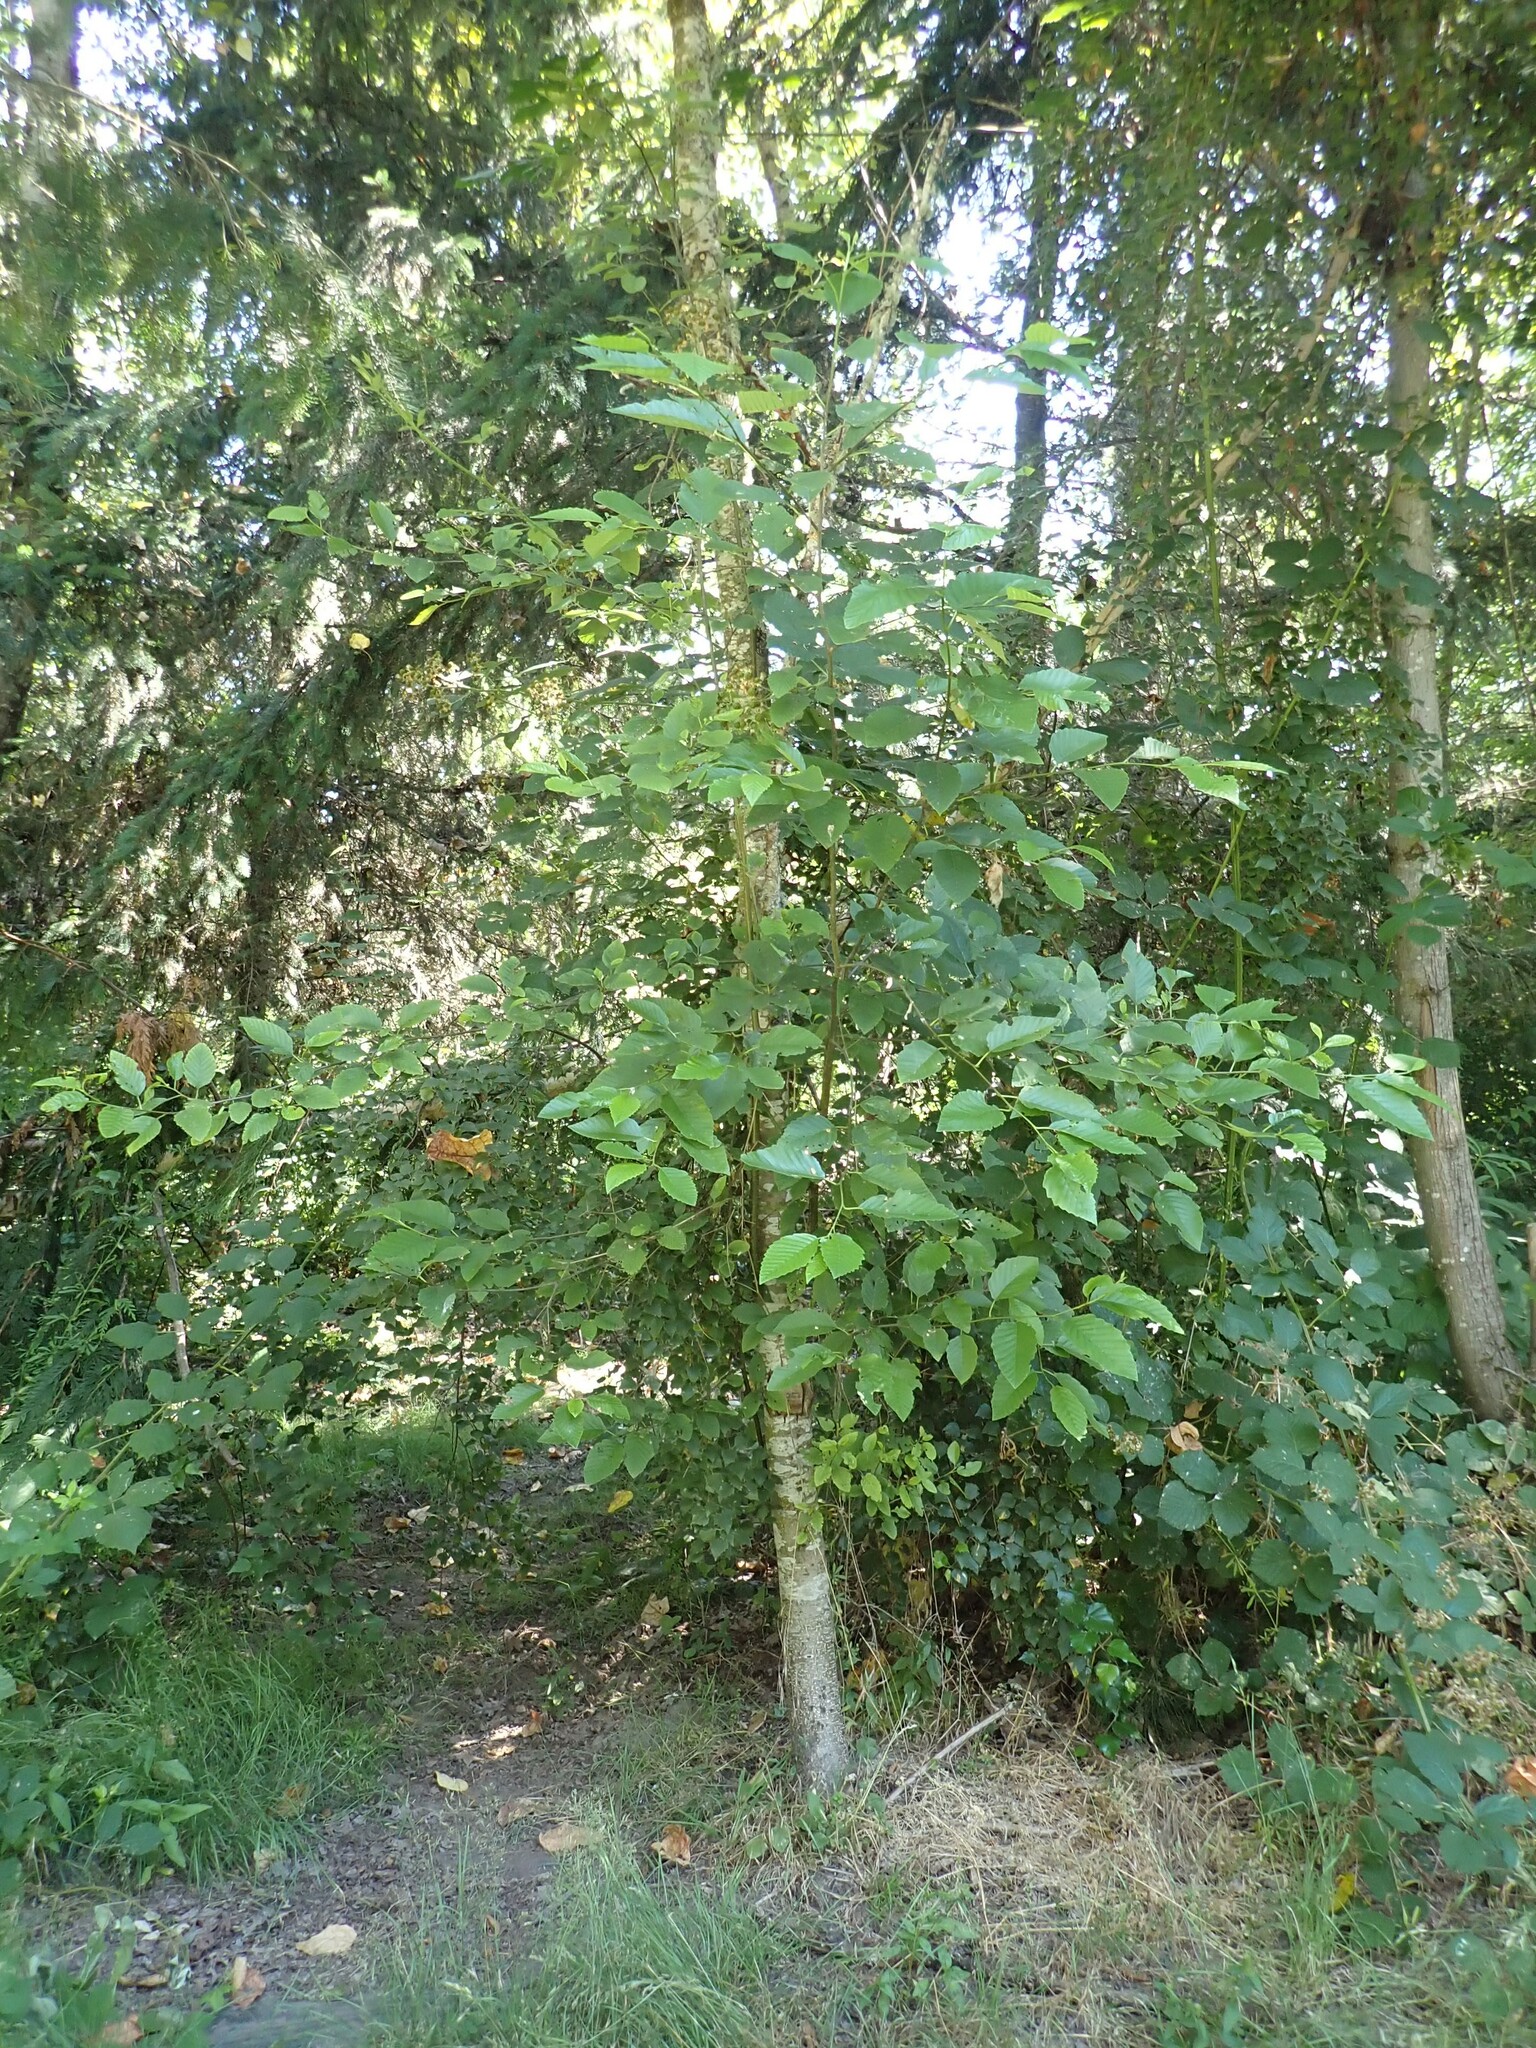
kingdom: Plantae
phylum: Tracheophyta
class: Magnoliopsida
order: Fagales
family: Betulaceae
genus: Alnus
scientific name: Alnus rubra
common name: Red alder
